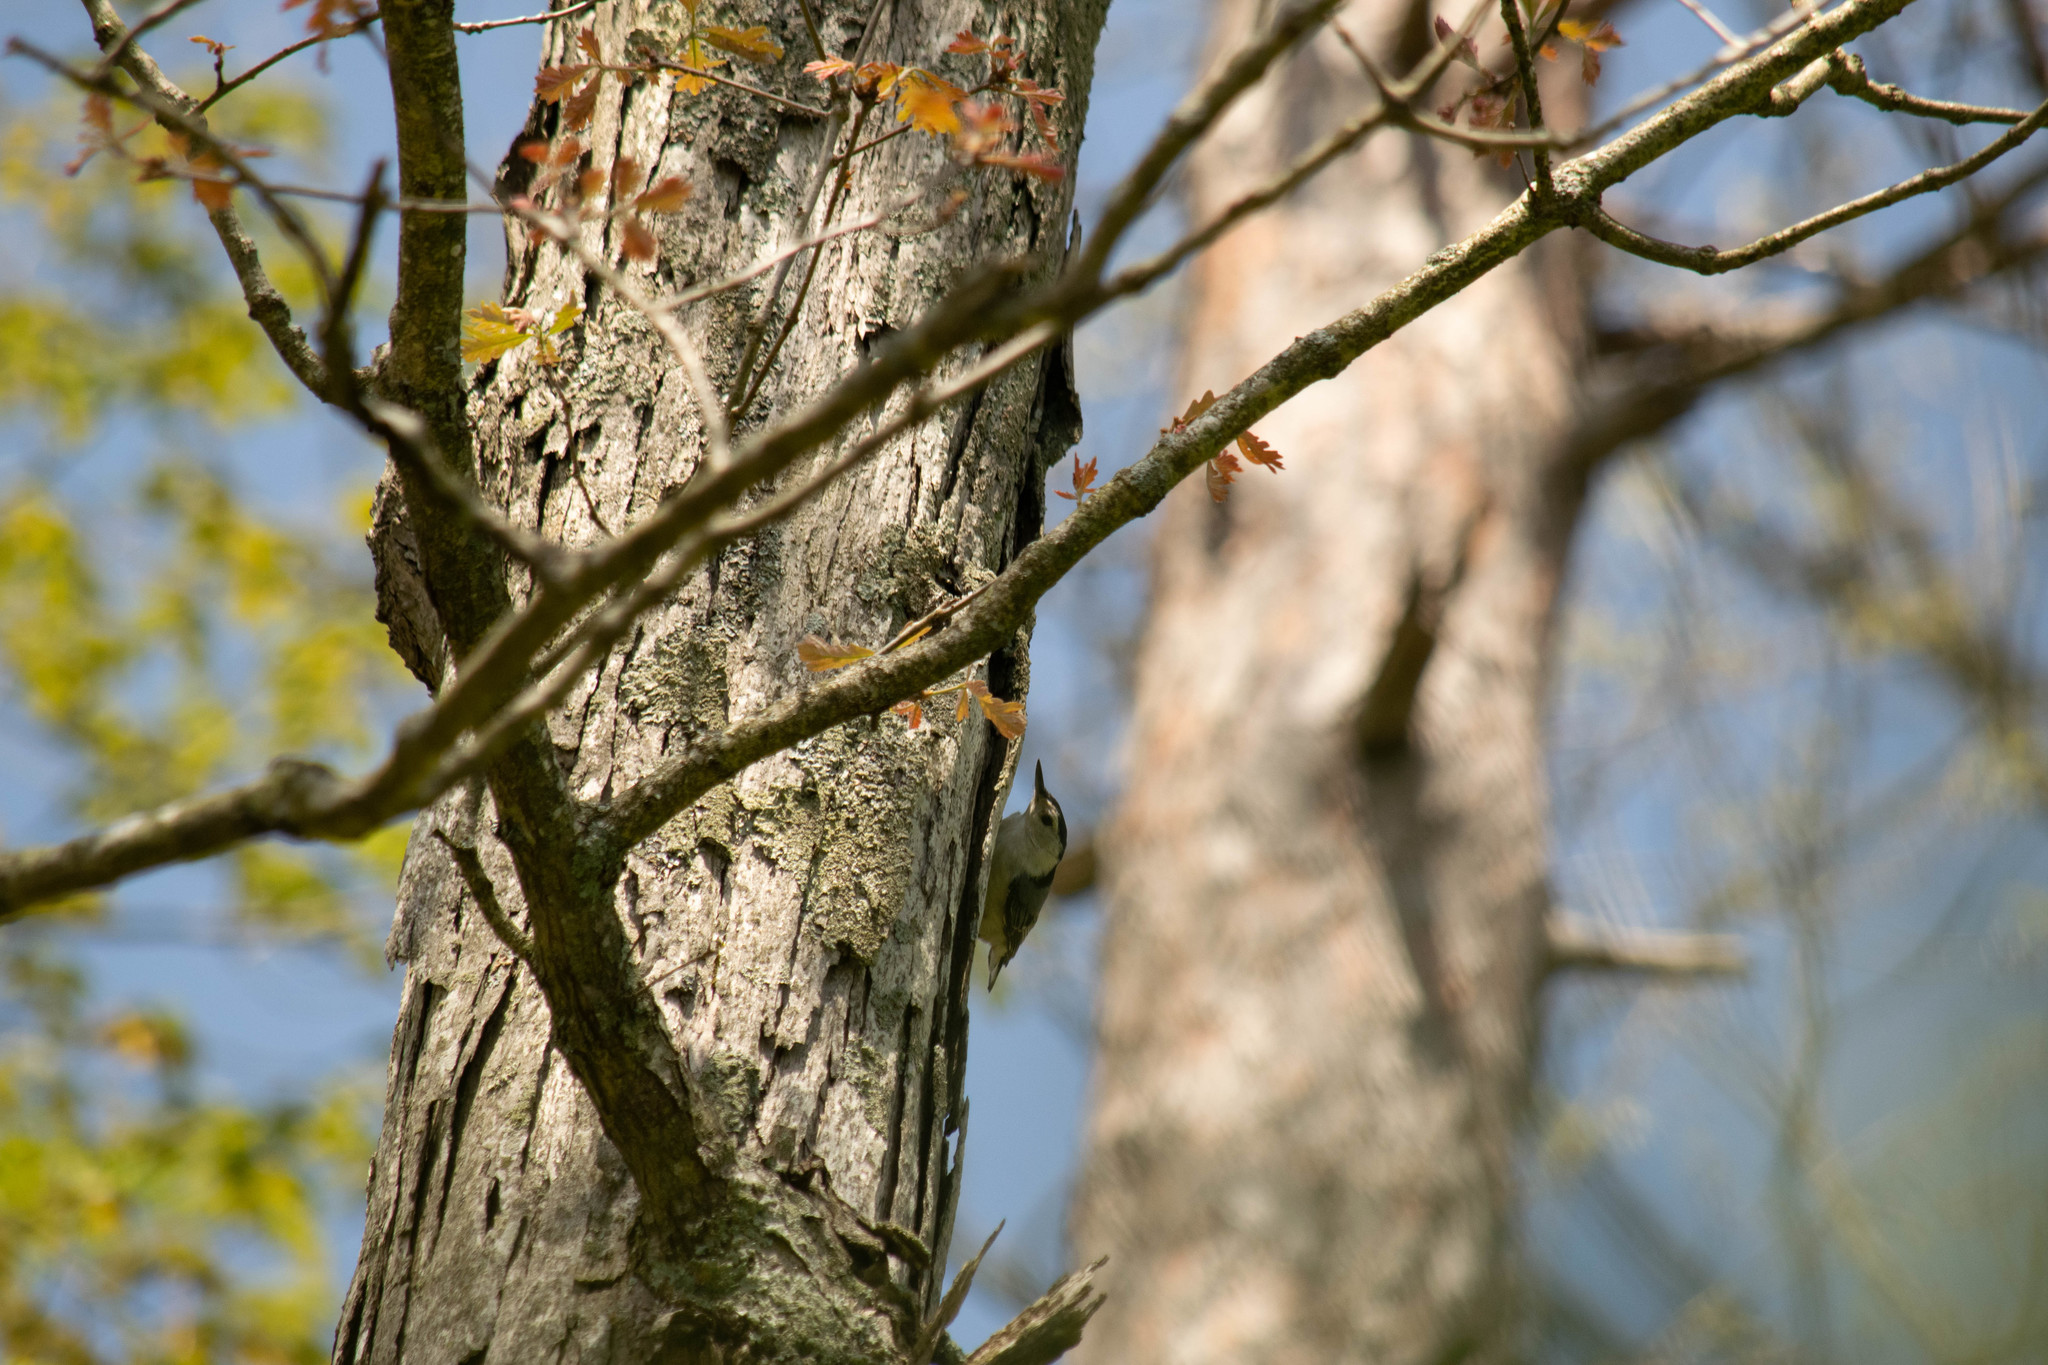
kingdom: Animalia
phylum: Chordata
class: Aves
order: Passeriformes
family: Sittidae
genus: Sitta
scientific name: Sitta carolinensis
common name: White-breasted nuthatch
